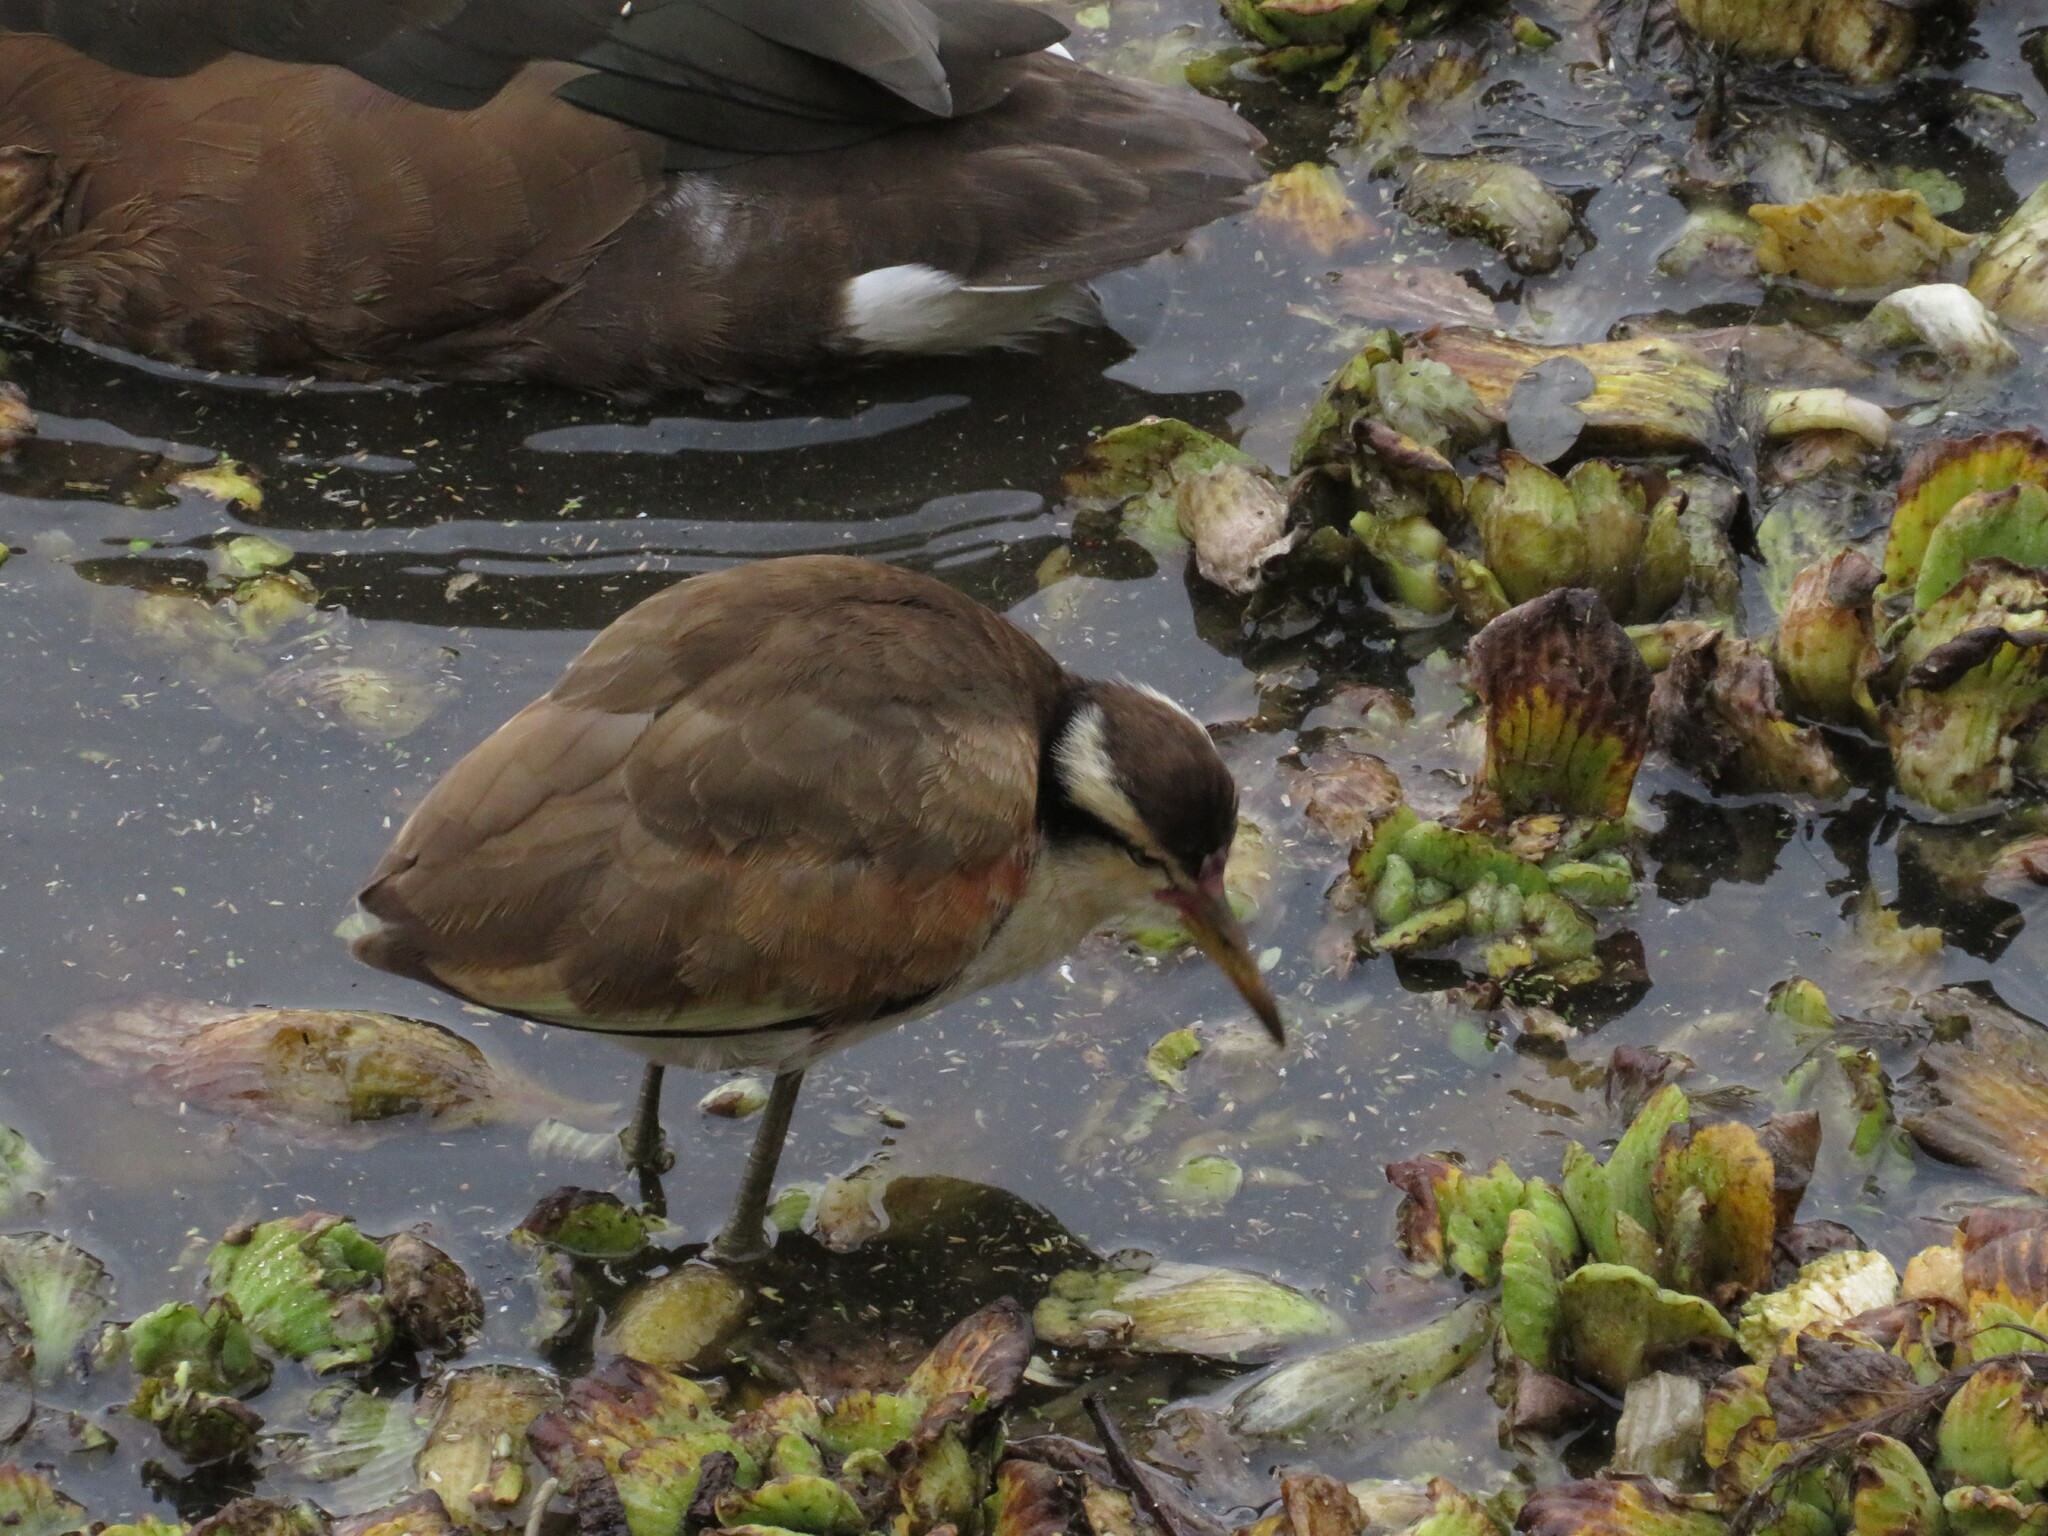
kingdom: Animalia
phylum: Chordata
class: Aves
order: Charadriiformes
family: Jacanidae
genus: Jacana
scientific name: Jacana jacana
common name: Wattled jacana
